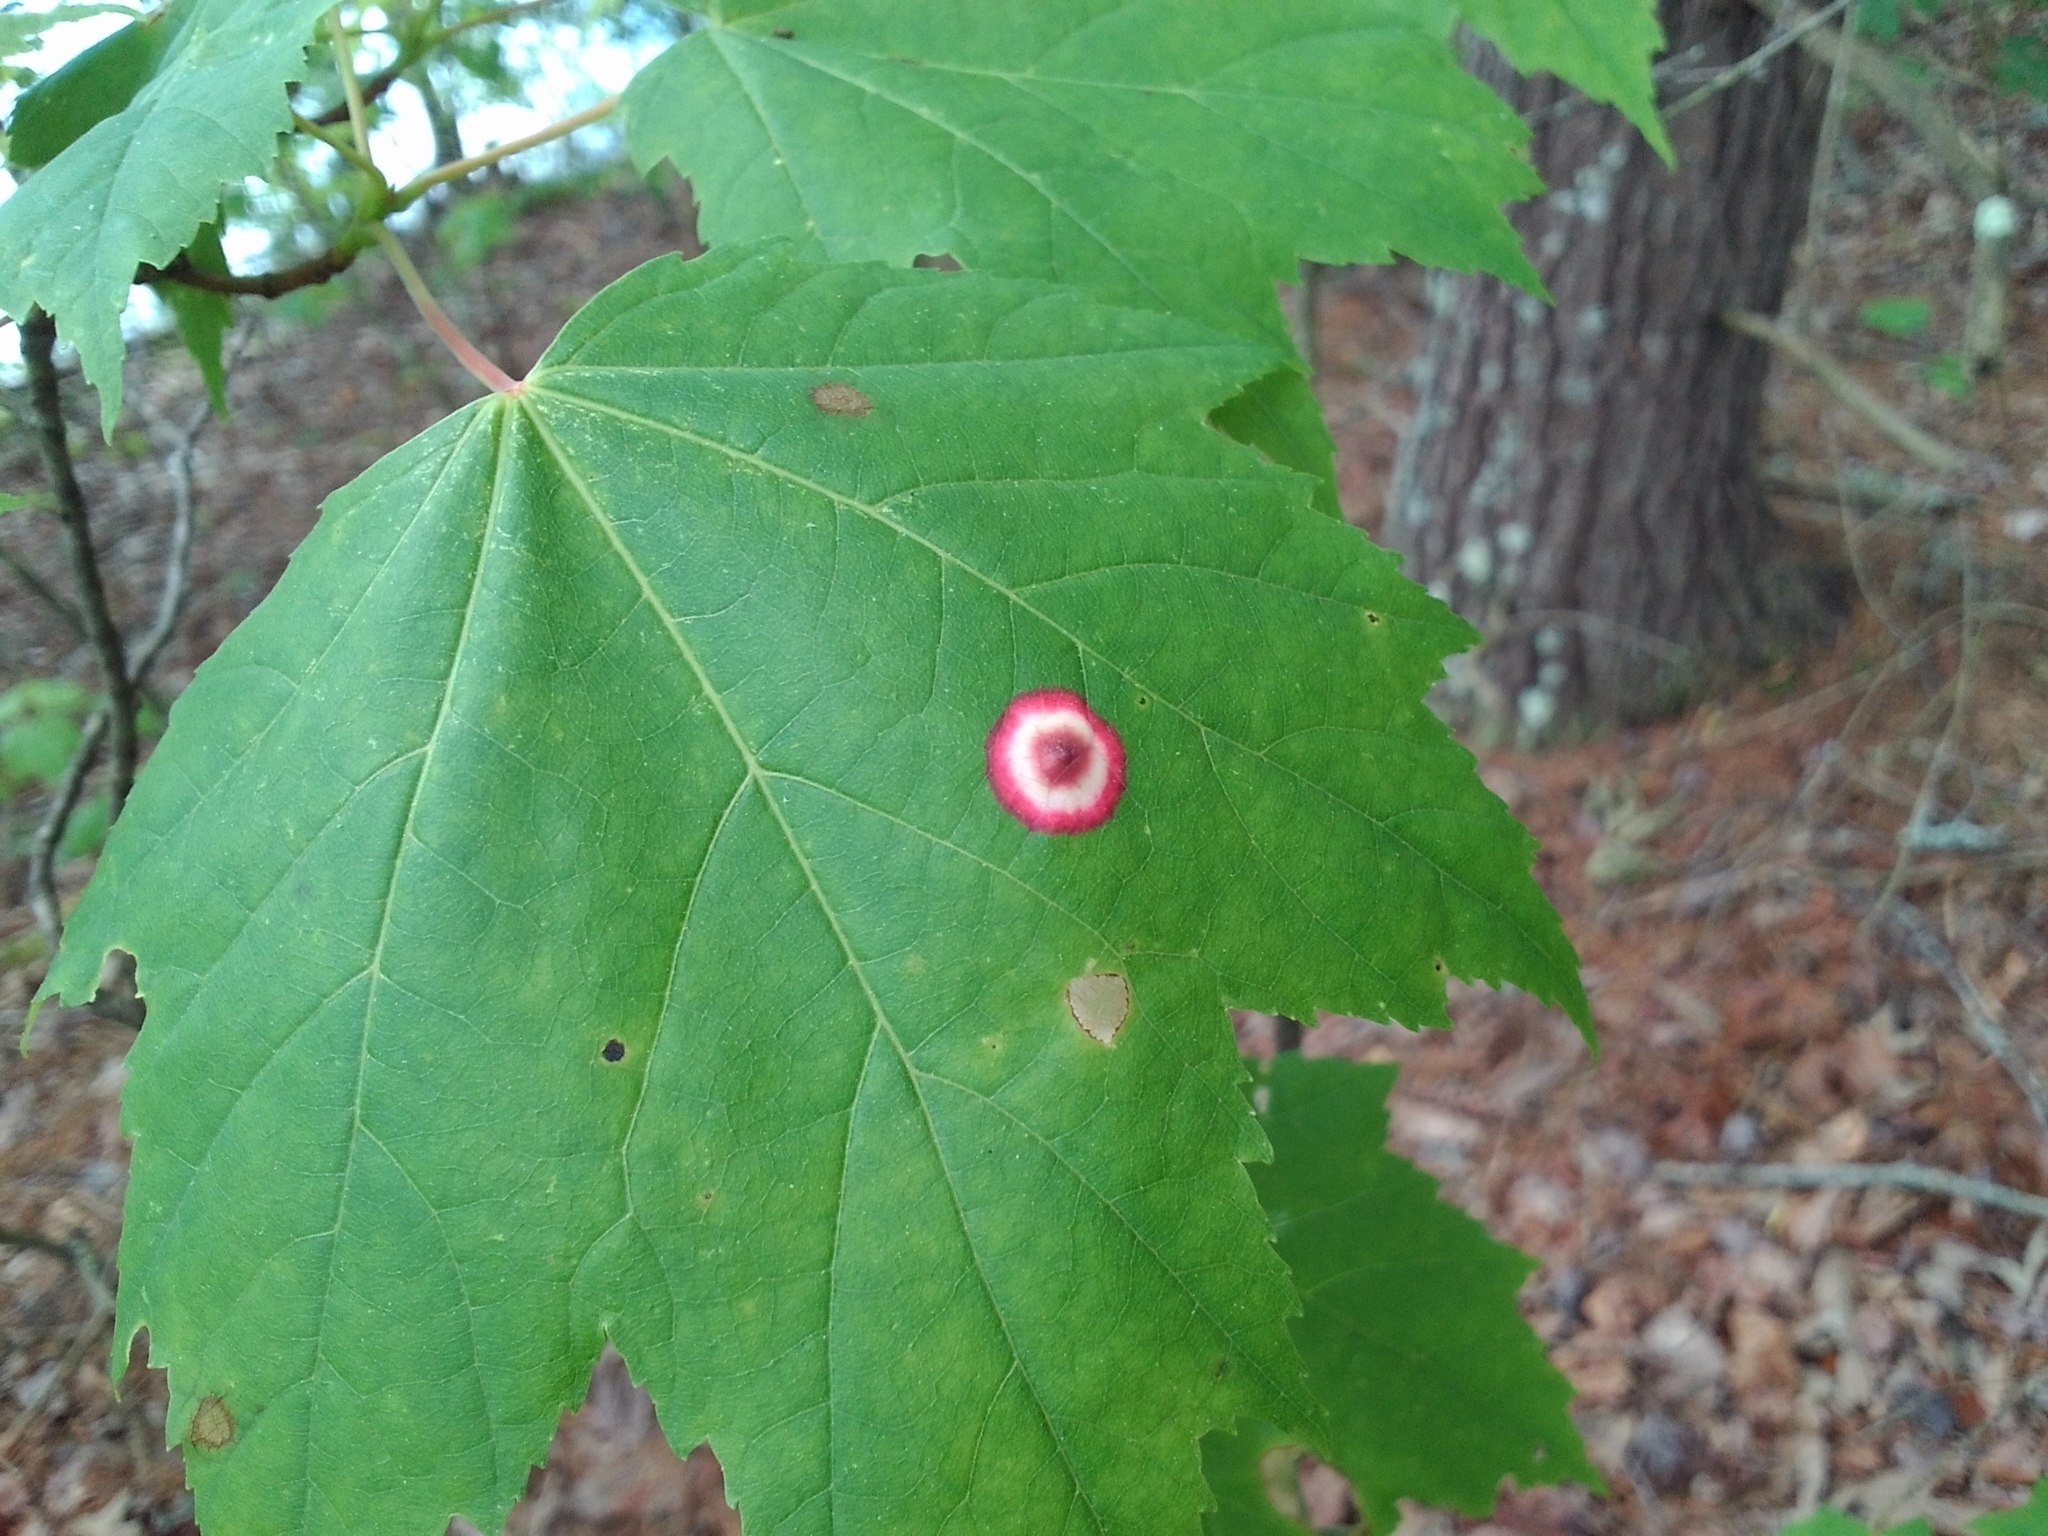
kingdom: Animalia
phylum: Arthropoda
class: Insecta
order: Diptera
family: Cecidomyiidae
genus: Acericecis
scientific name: Acericecis ocellaris
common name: Ocellate gall midge
